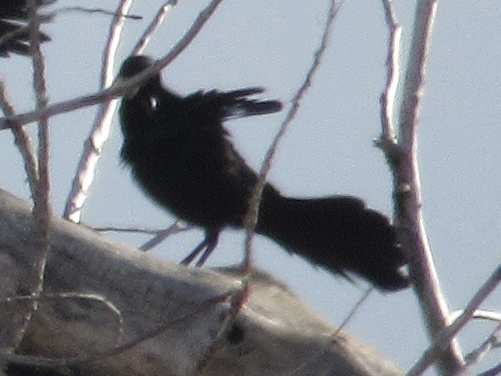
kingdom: Animalia
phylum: Chordata
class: Aves
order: Passeriformes
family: Icteridae
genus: Quiscalus
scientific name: Quiscalus mexicanus
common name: Great-tailed grackle
